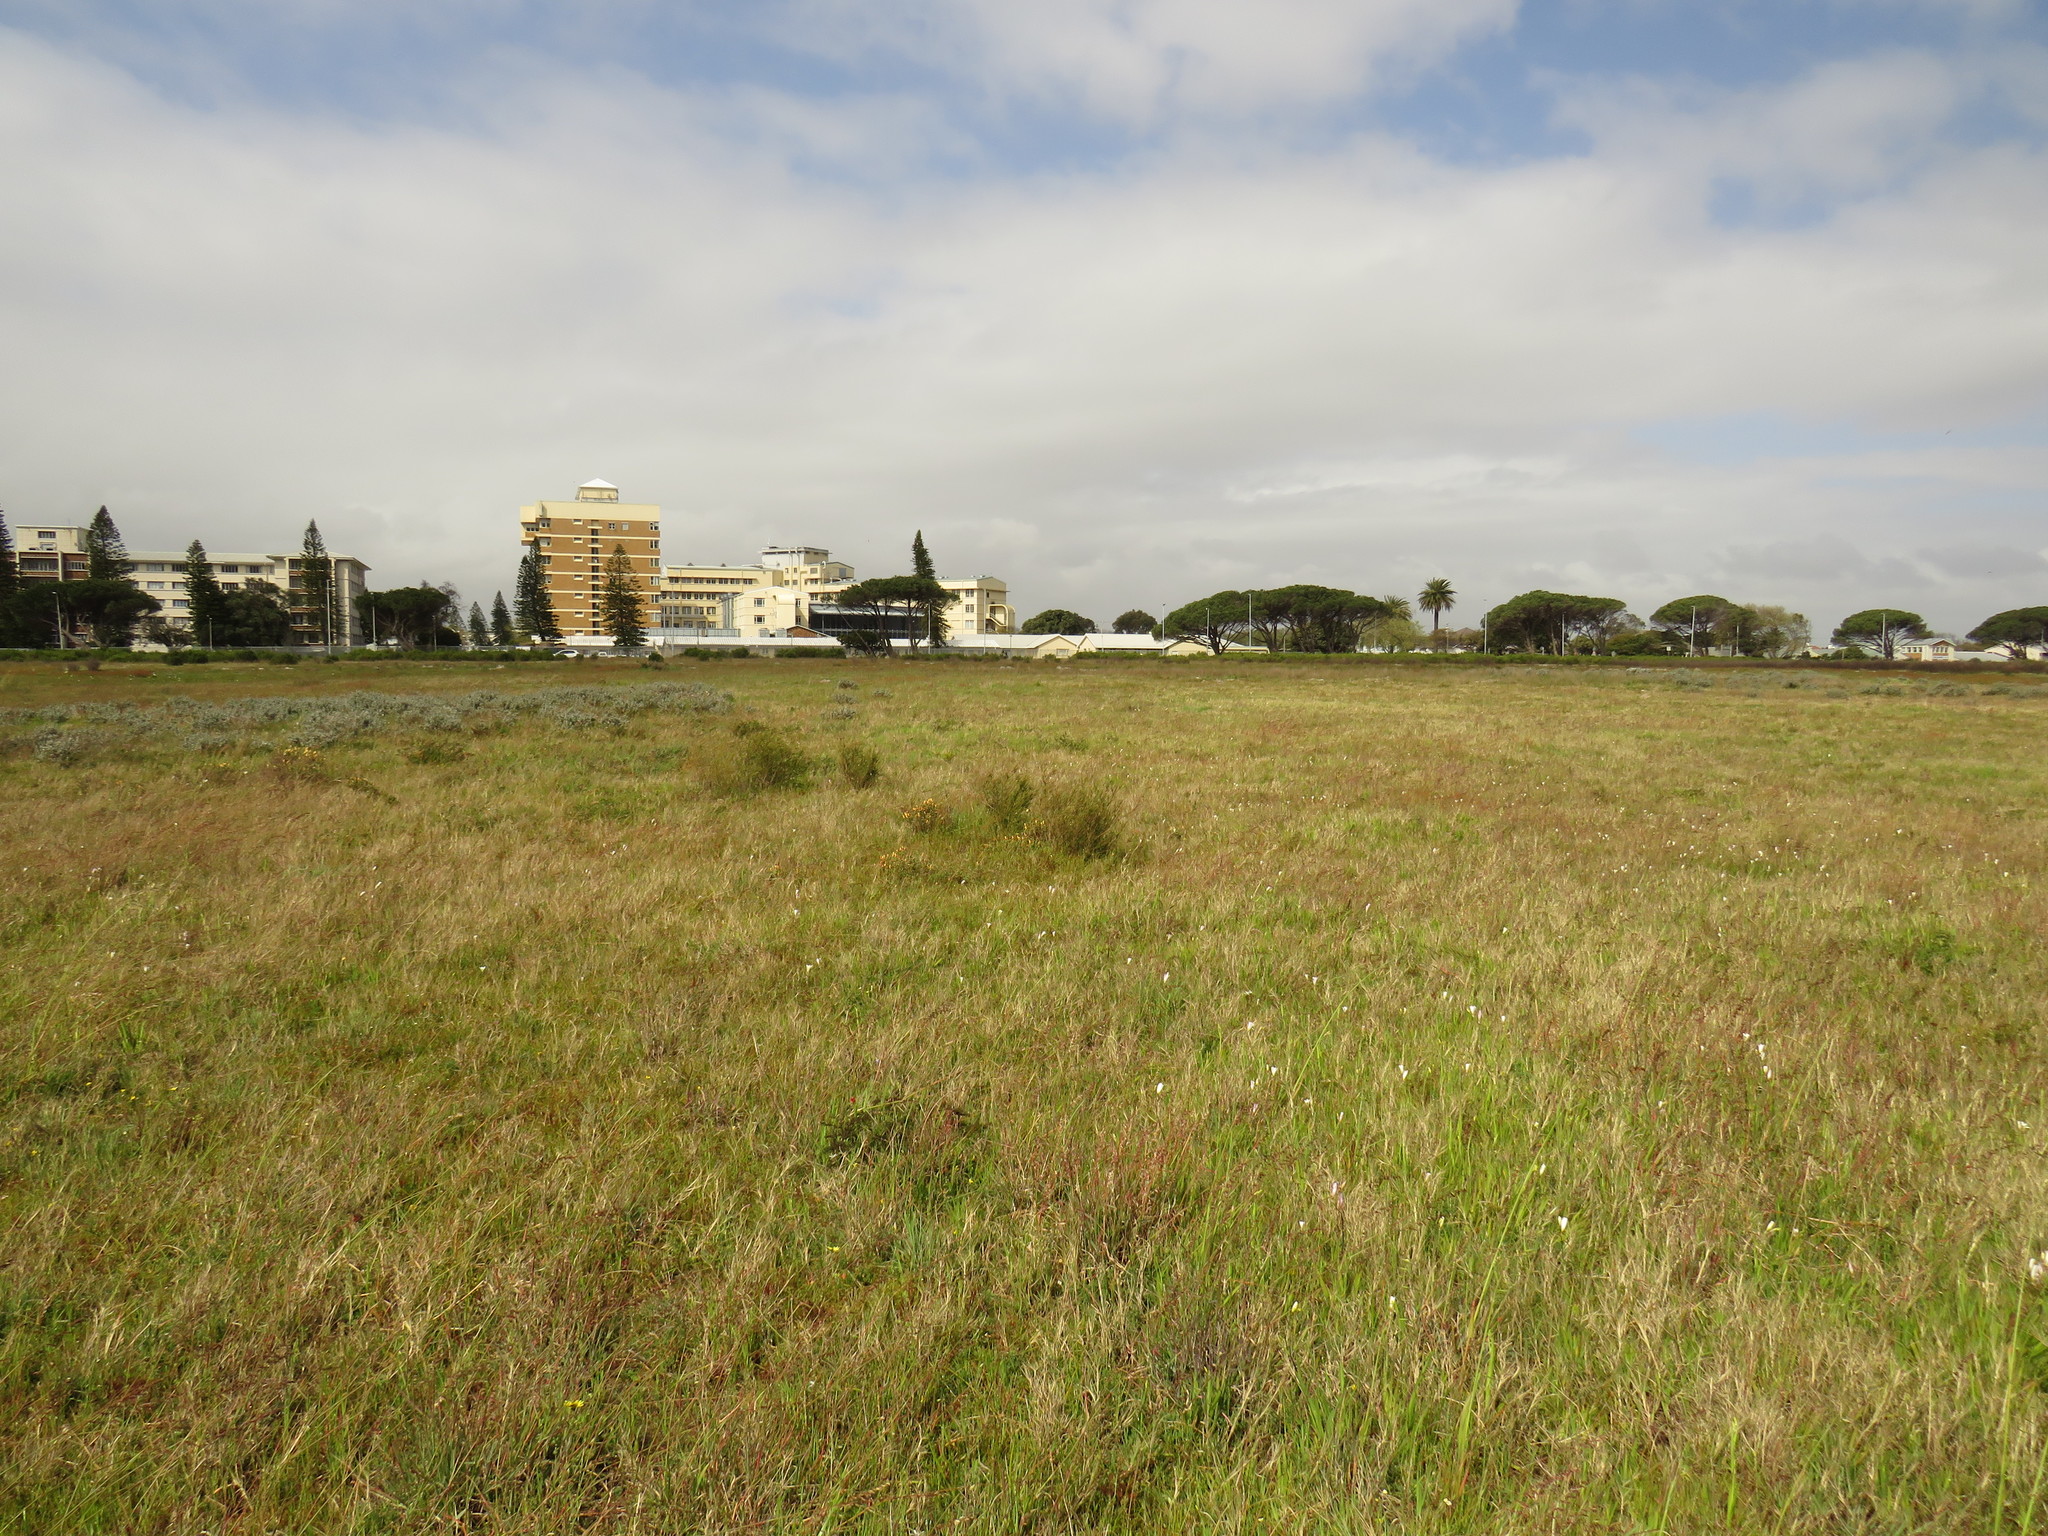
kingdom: Plantae
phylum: Tracheophyta
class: Magnoliopsida
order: Caryophyllales
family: Aizoaceae
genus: Lampranthus
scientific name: Lampranthus glaucus
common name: Noonflower
